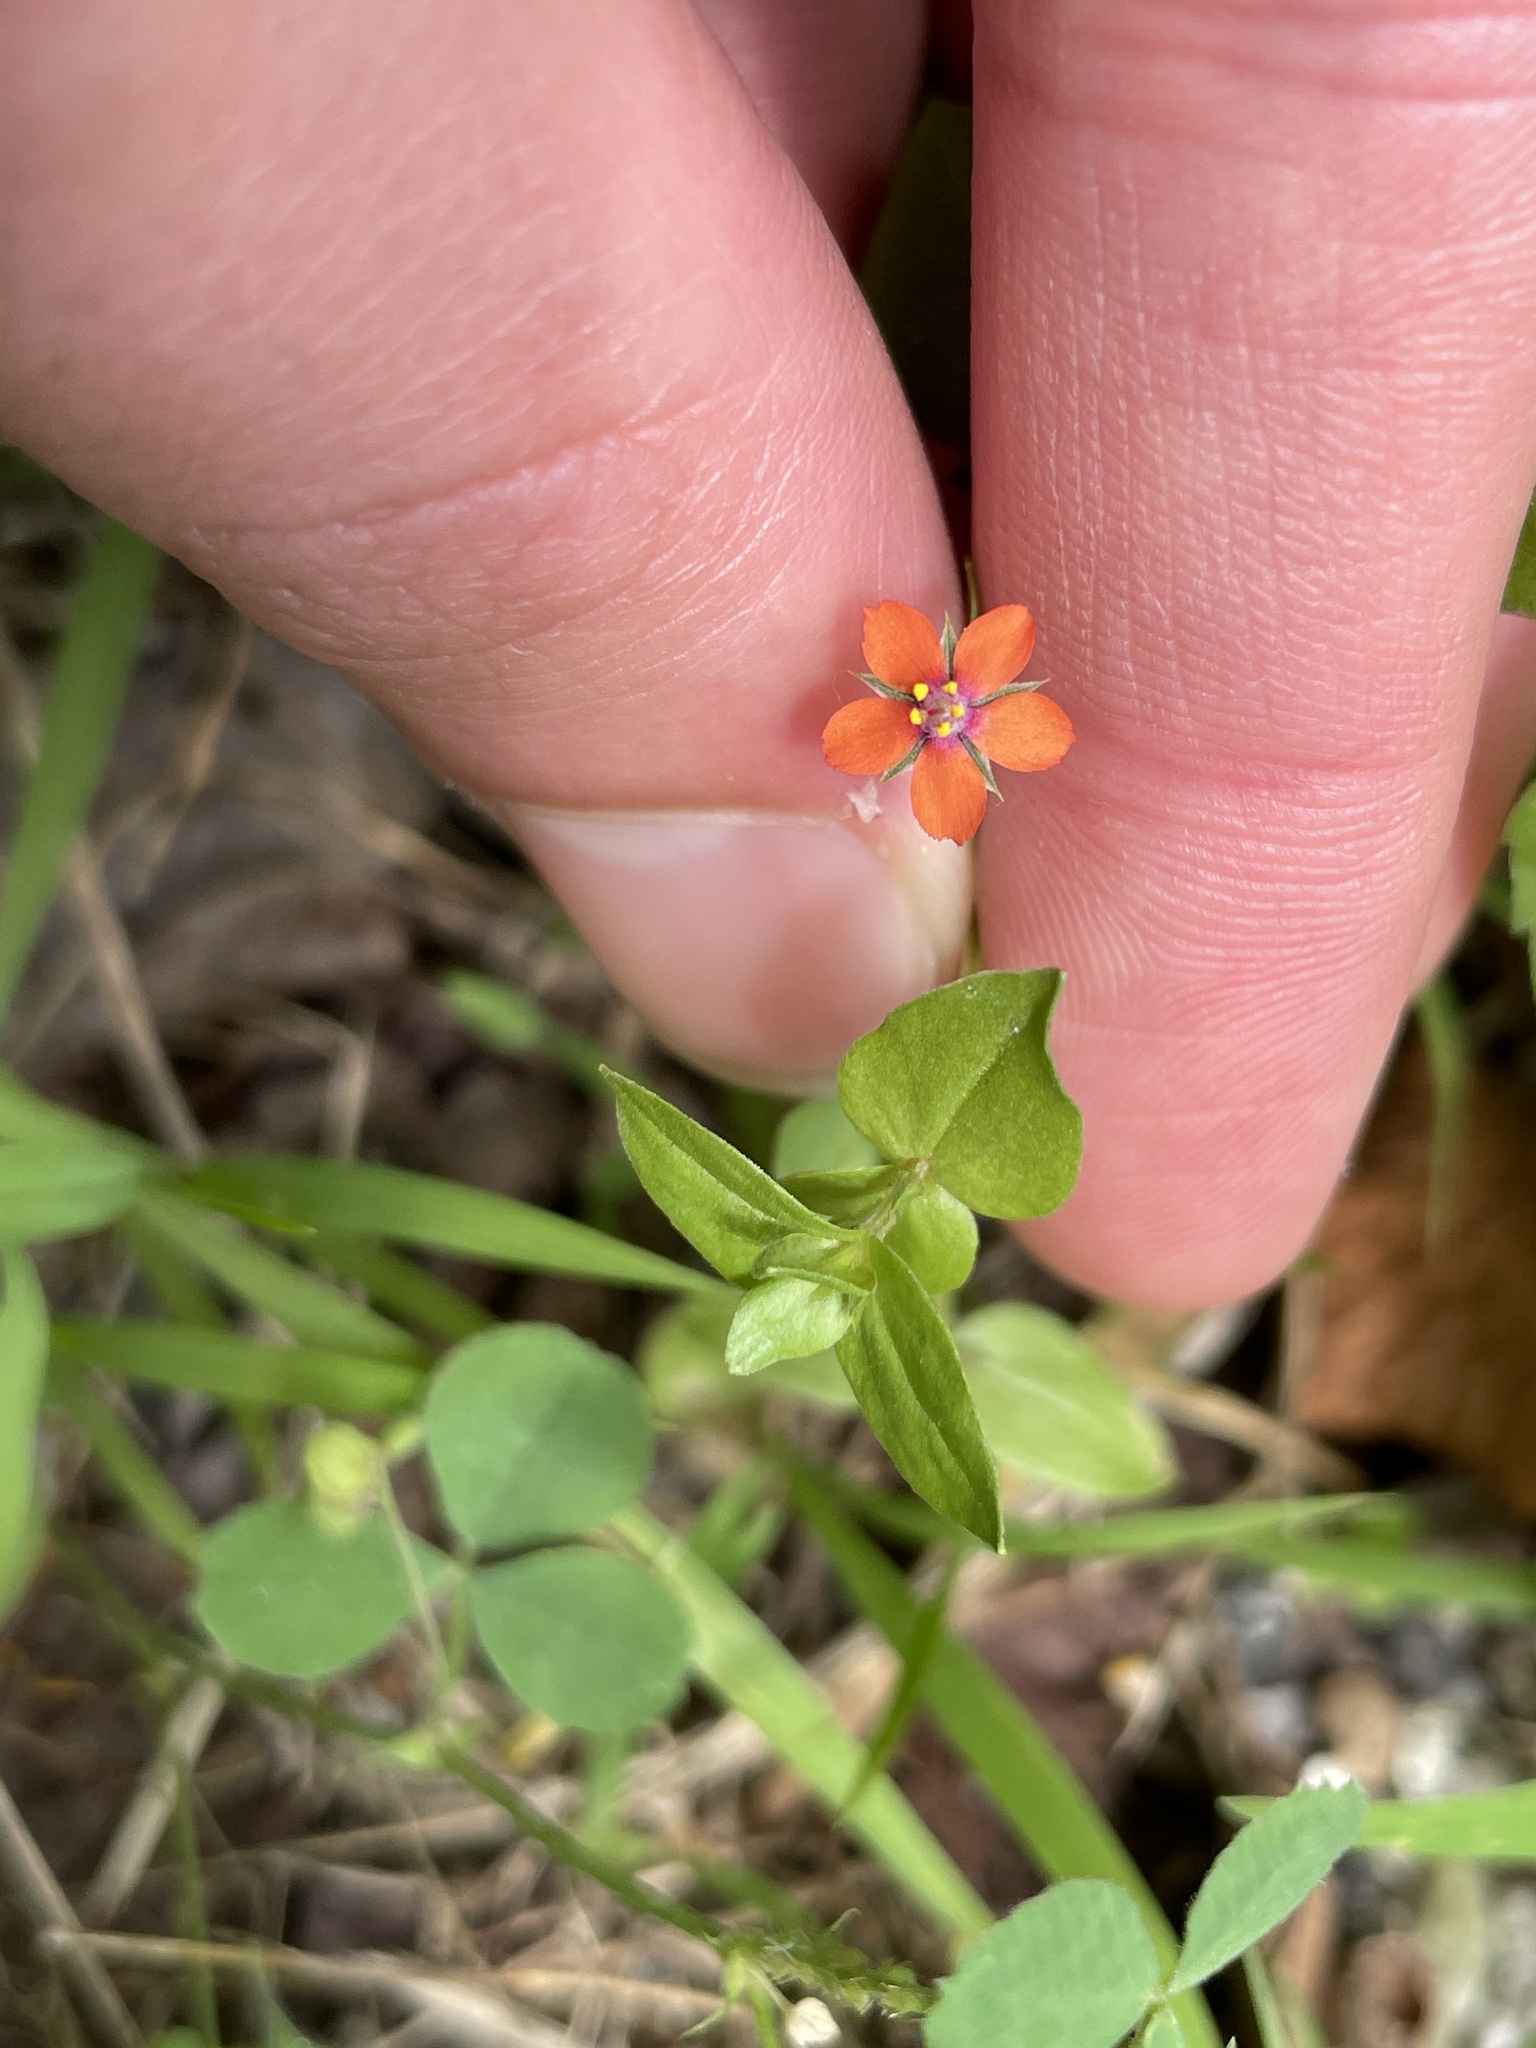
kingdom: Plantae
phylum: Tracheophyta
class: Magnoliopsida
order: Ericales
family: Primulaceae
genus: Lysimachia
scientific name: Lysimachia arvensis
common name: Scarlet pimpernel
